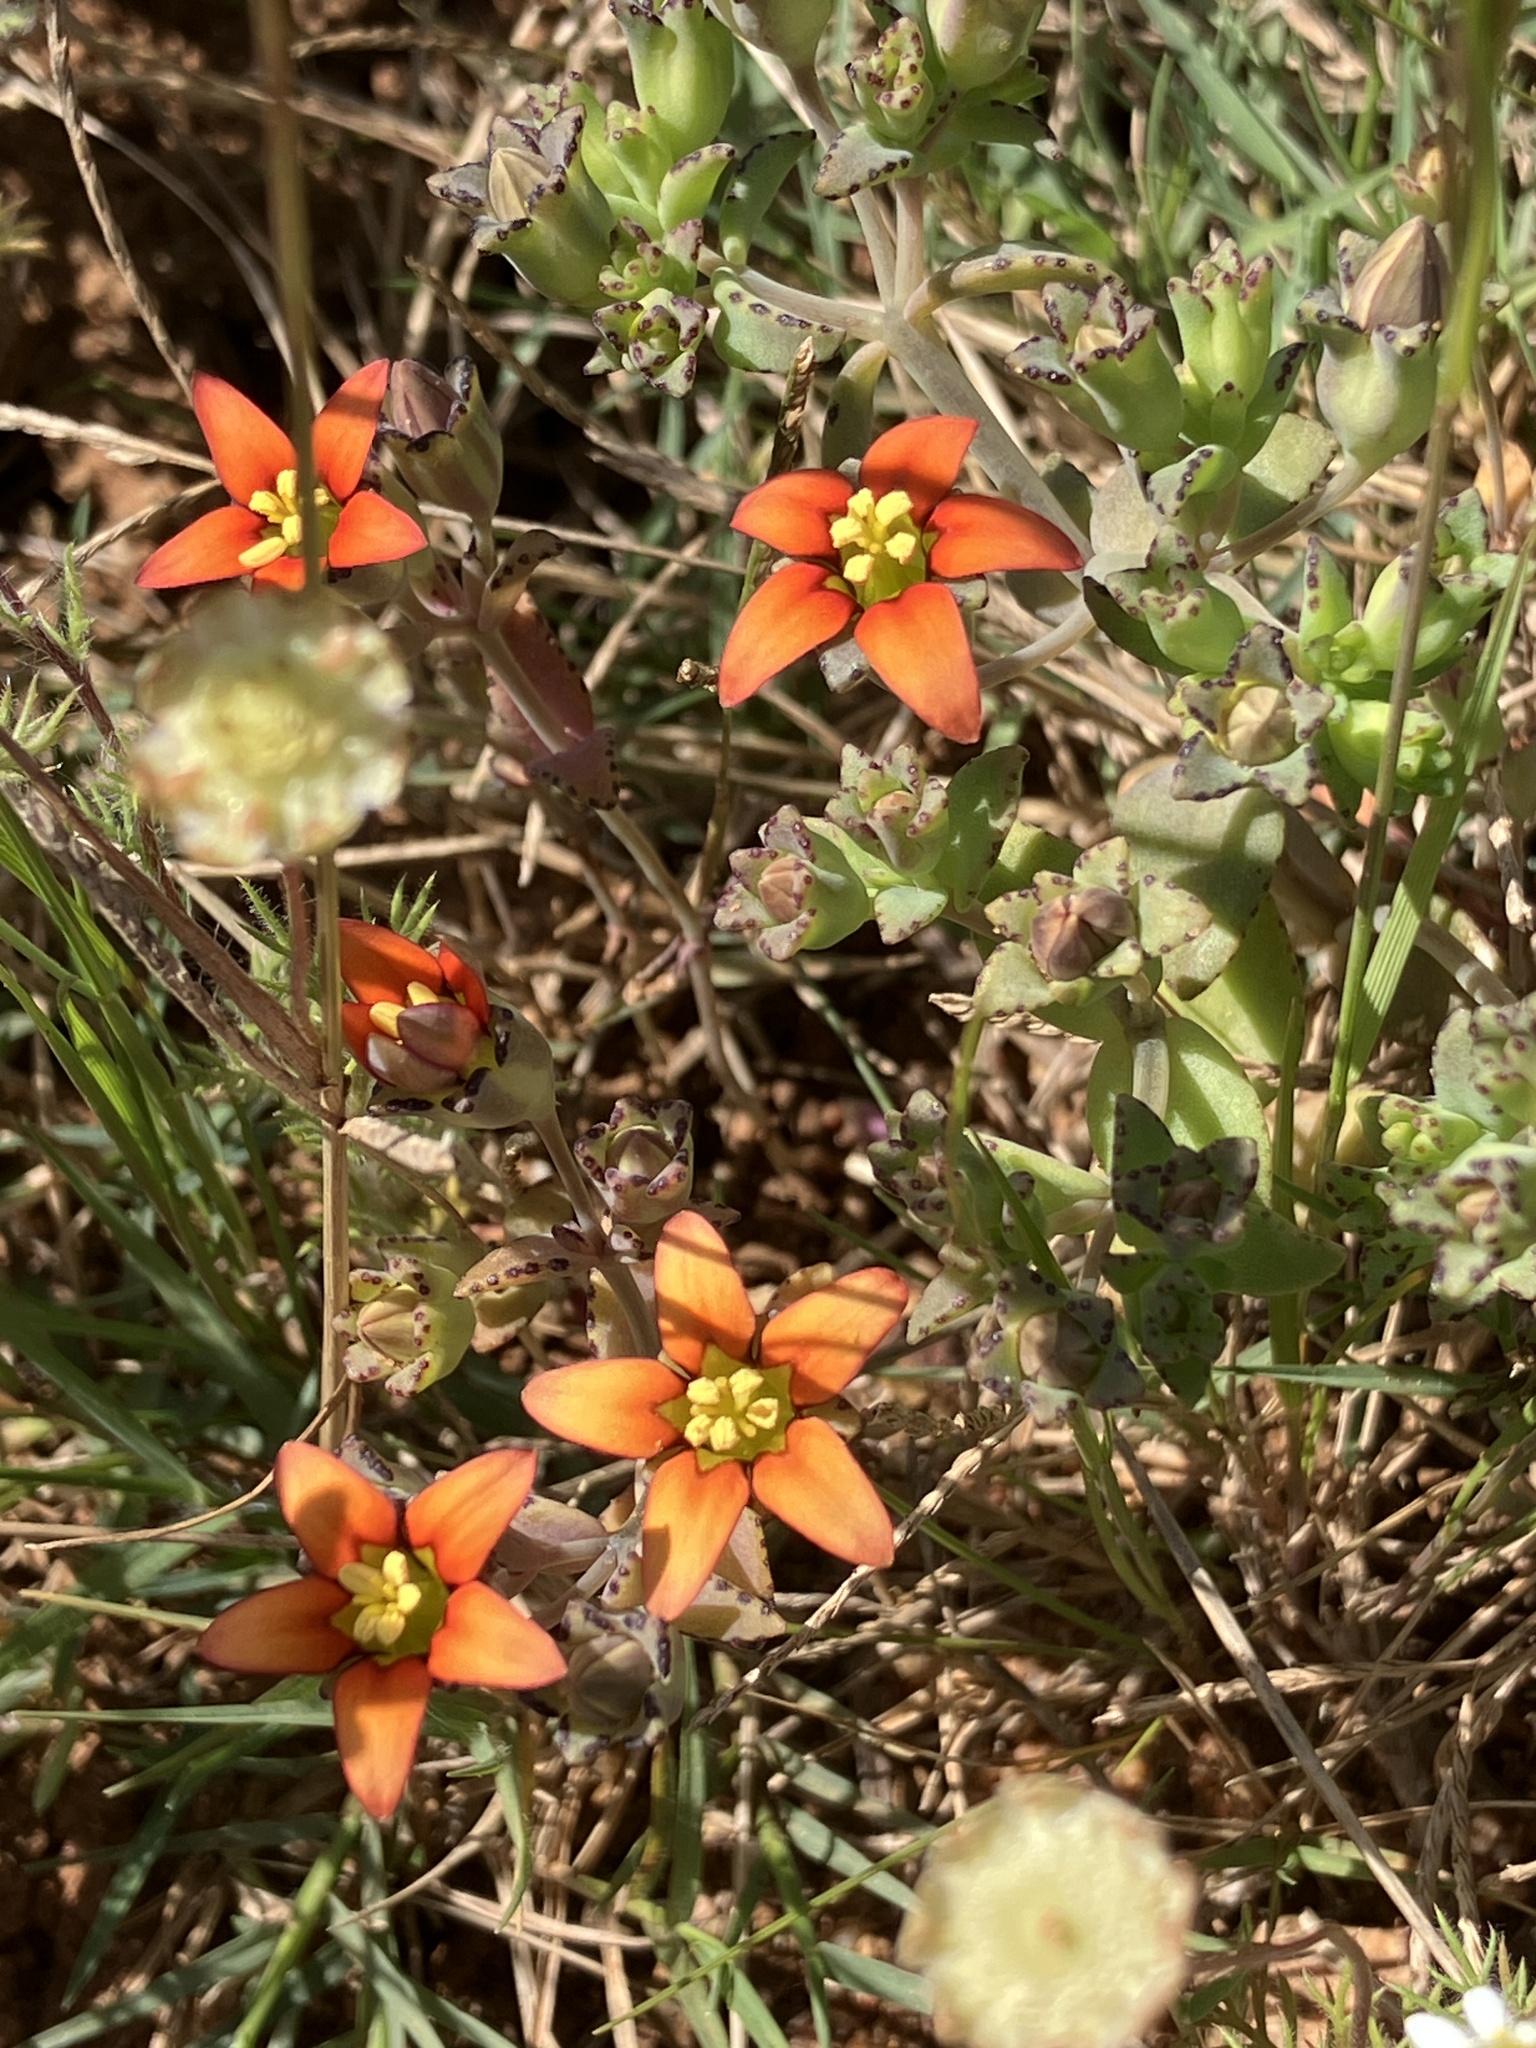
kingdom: Plantae
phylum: Tracheophyta
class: Magnoliopsida
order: Saxifragales
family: Crassulaceae
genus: Crassula
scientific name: Crassula dichotoma
